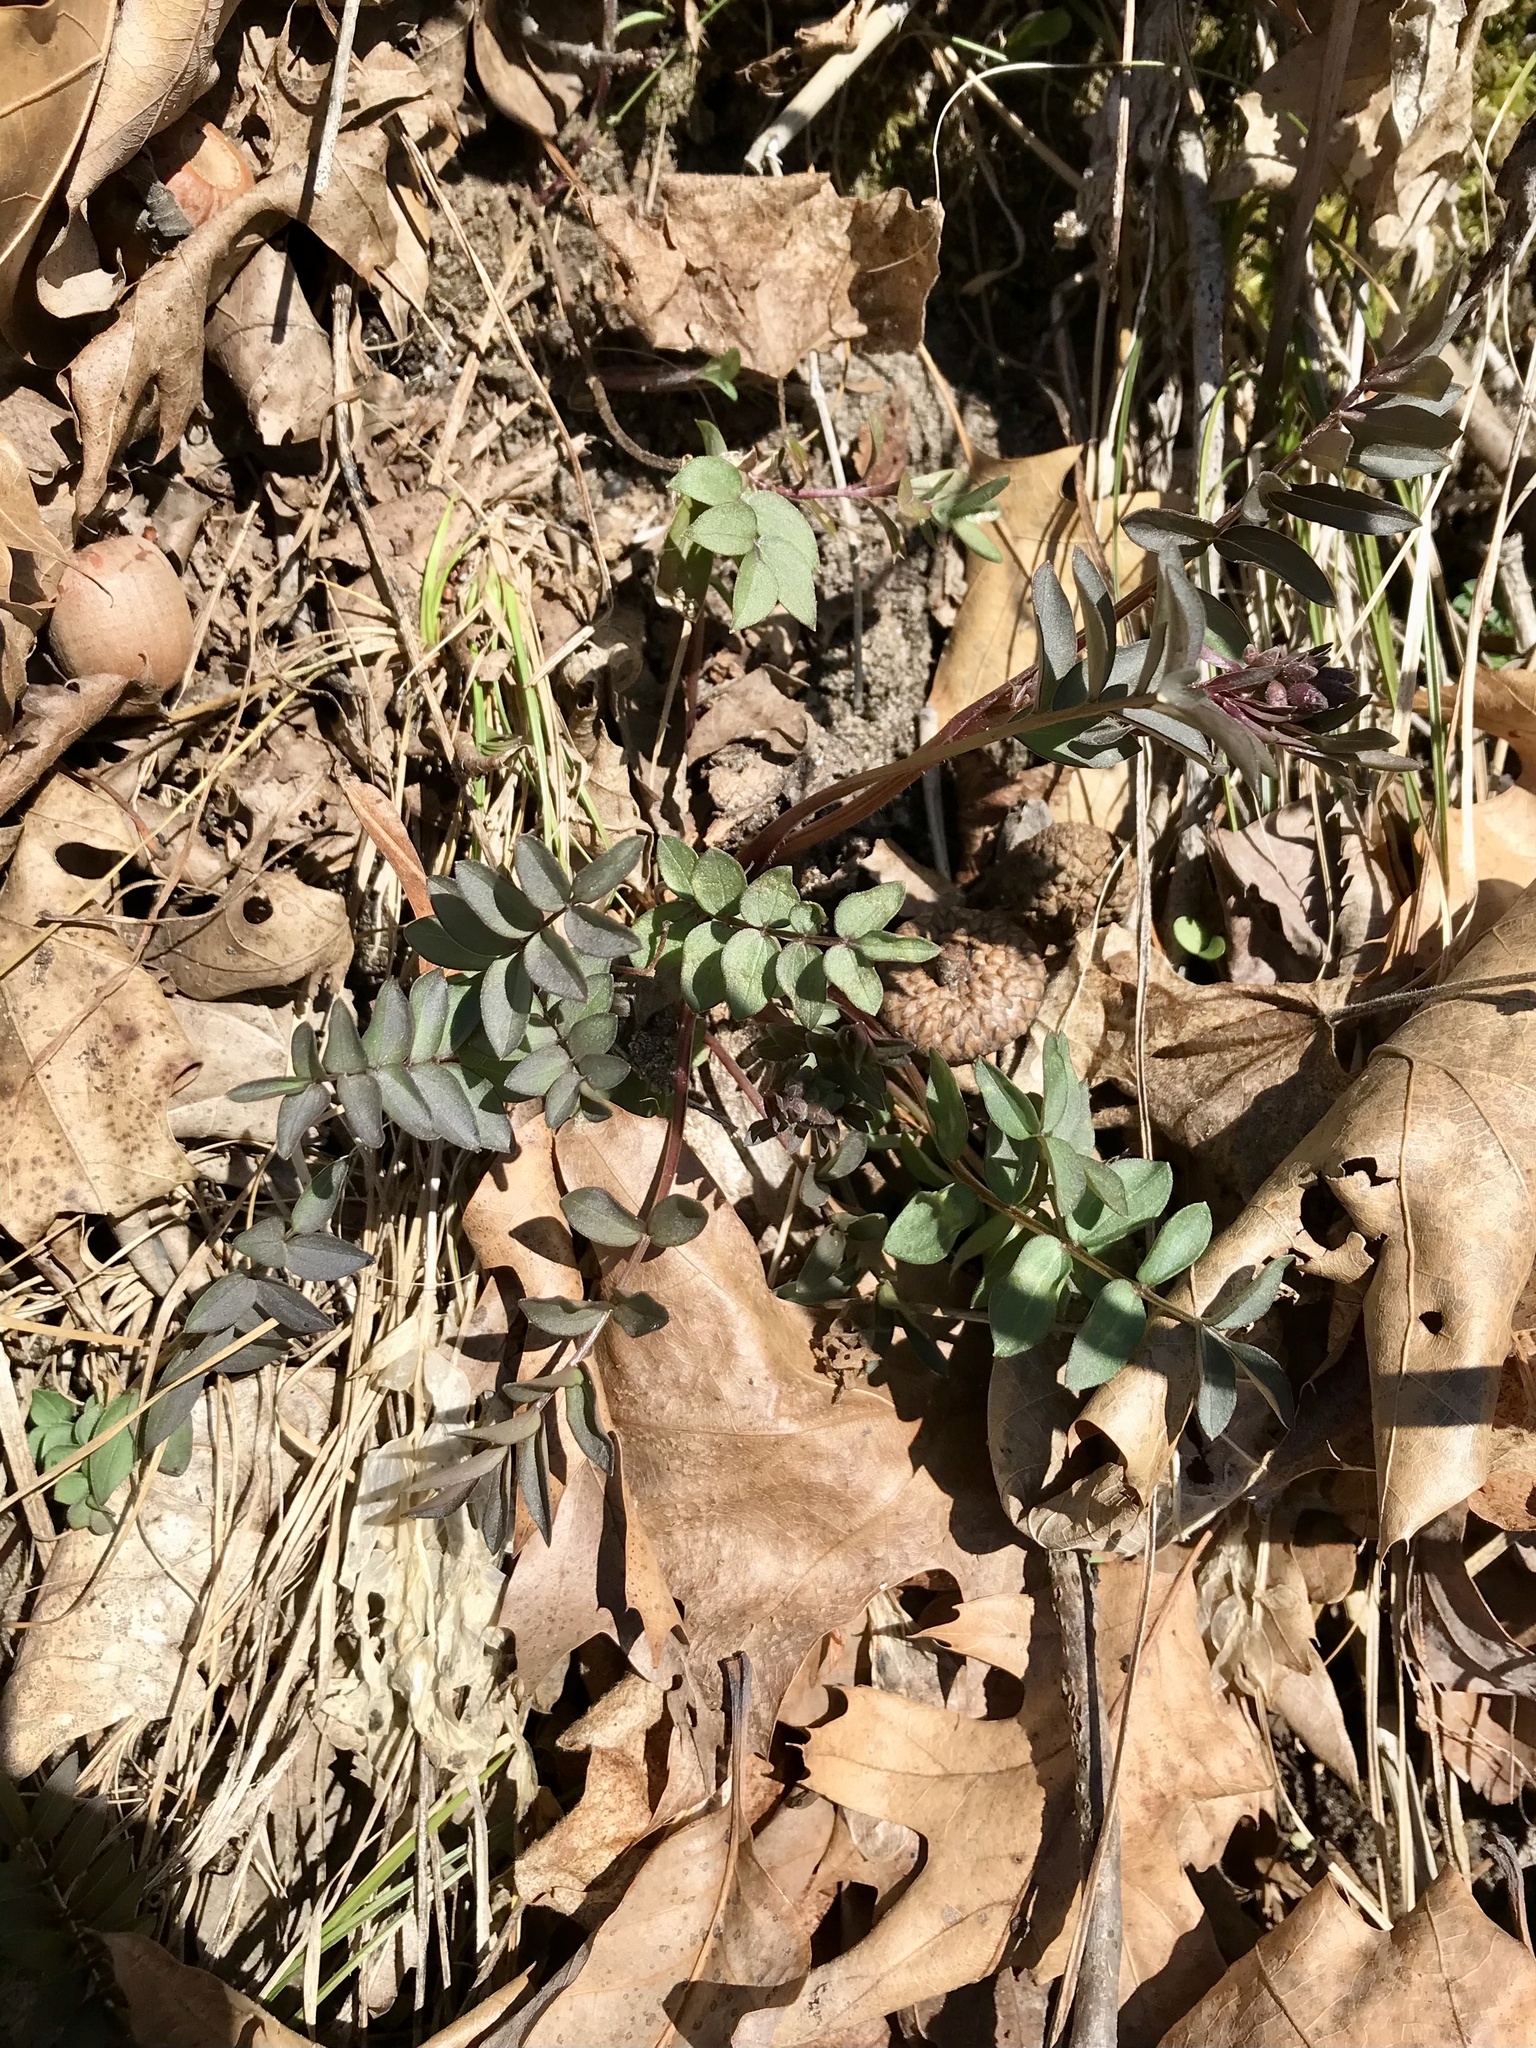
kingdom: Plantae
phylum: Tracheophyta
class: Magnoliopsida
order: Ericales
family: Polemoniaceae
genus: Polemonium
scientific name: Polemonium reptans
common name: Creeping jacob's-ladder
